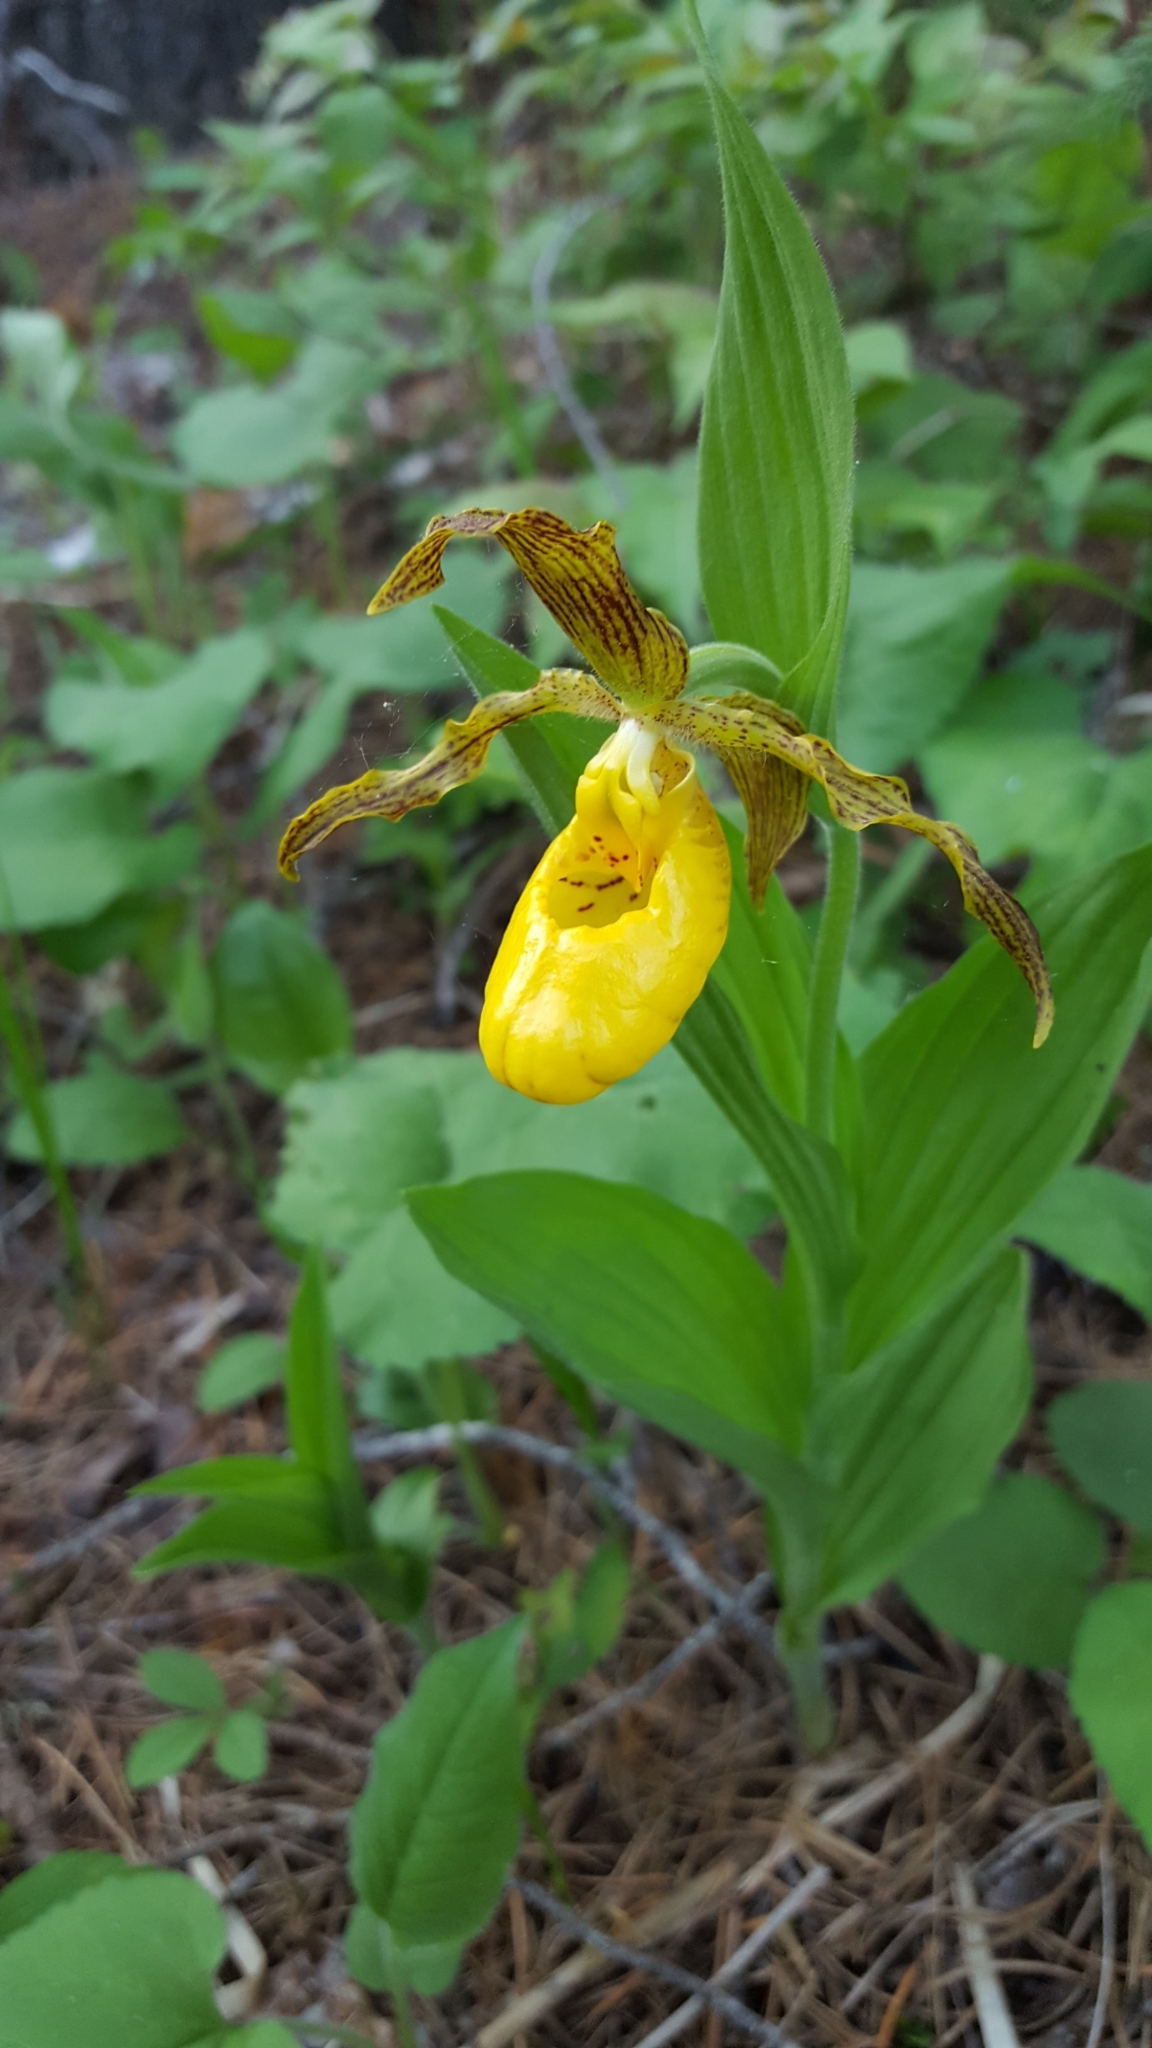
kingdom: Plantae
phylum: Tracheophyta
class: Liliopsida
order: Asparagales
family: Orchidaceae
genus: Cypripedium
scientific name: Cypripedium parviflorum
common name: American yellow lady's-slipper
